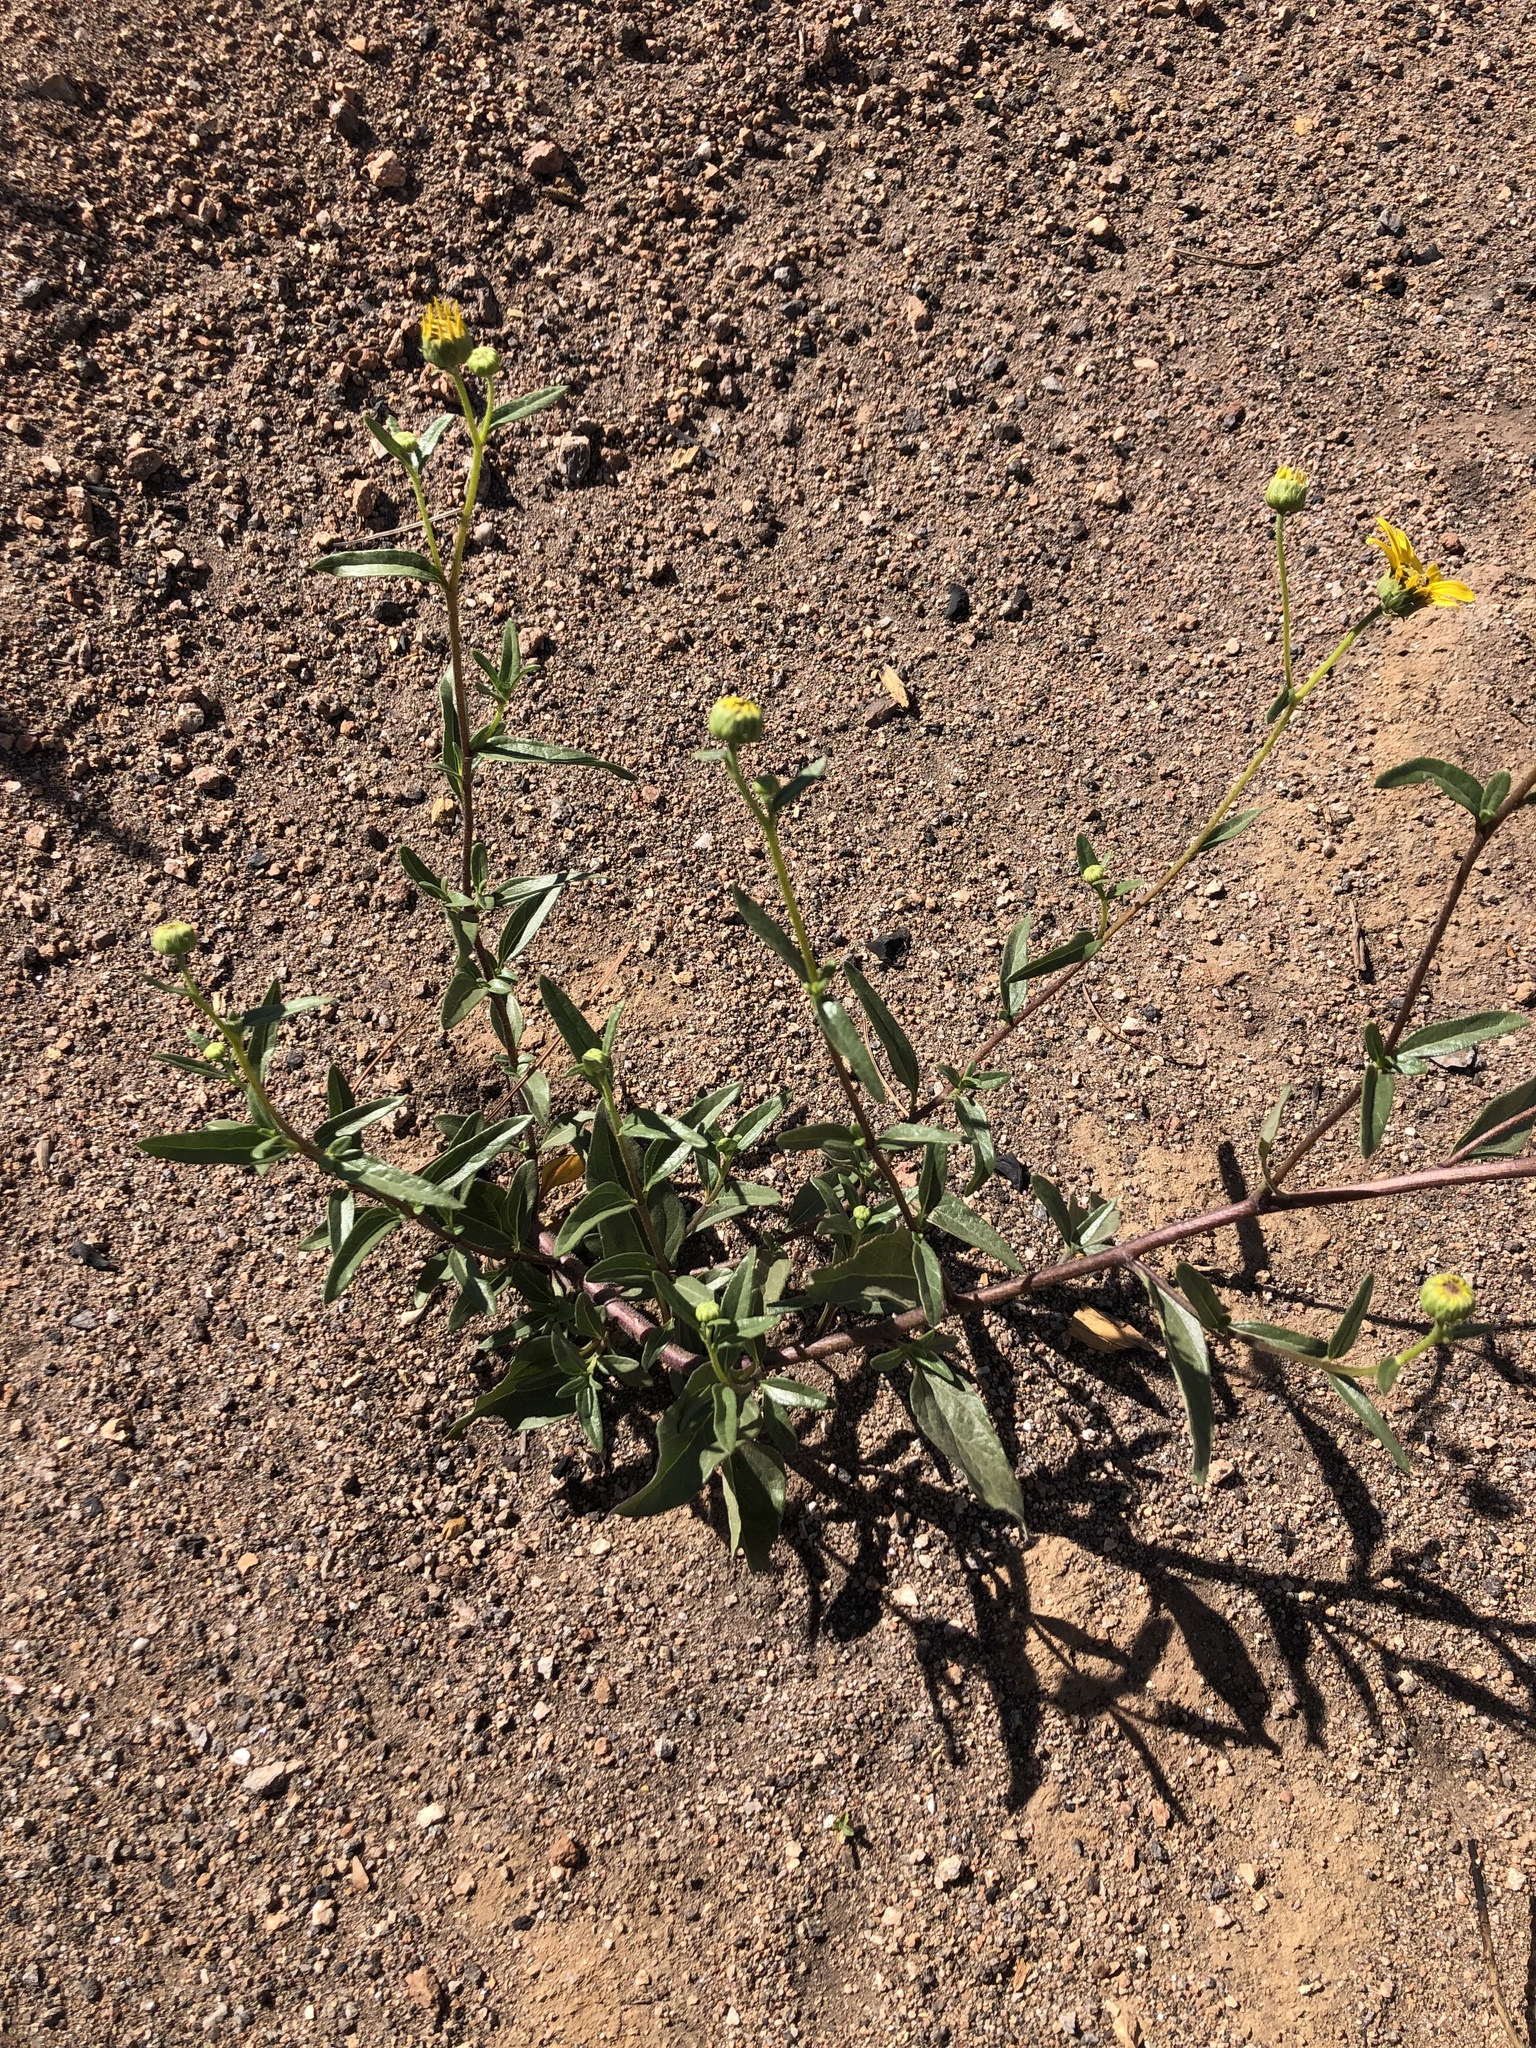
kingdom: Plantae
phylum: Tracheophyta
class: Magnoliopsida
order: Asterales
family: Asteraceae
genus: Helianthus
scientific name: Helianthus gracilentus
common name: Slender sunflower
